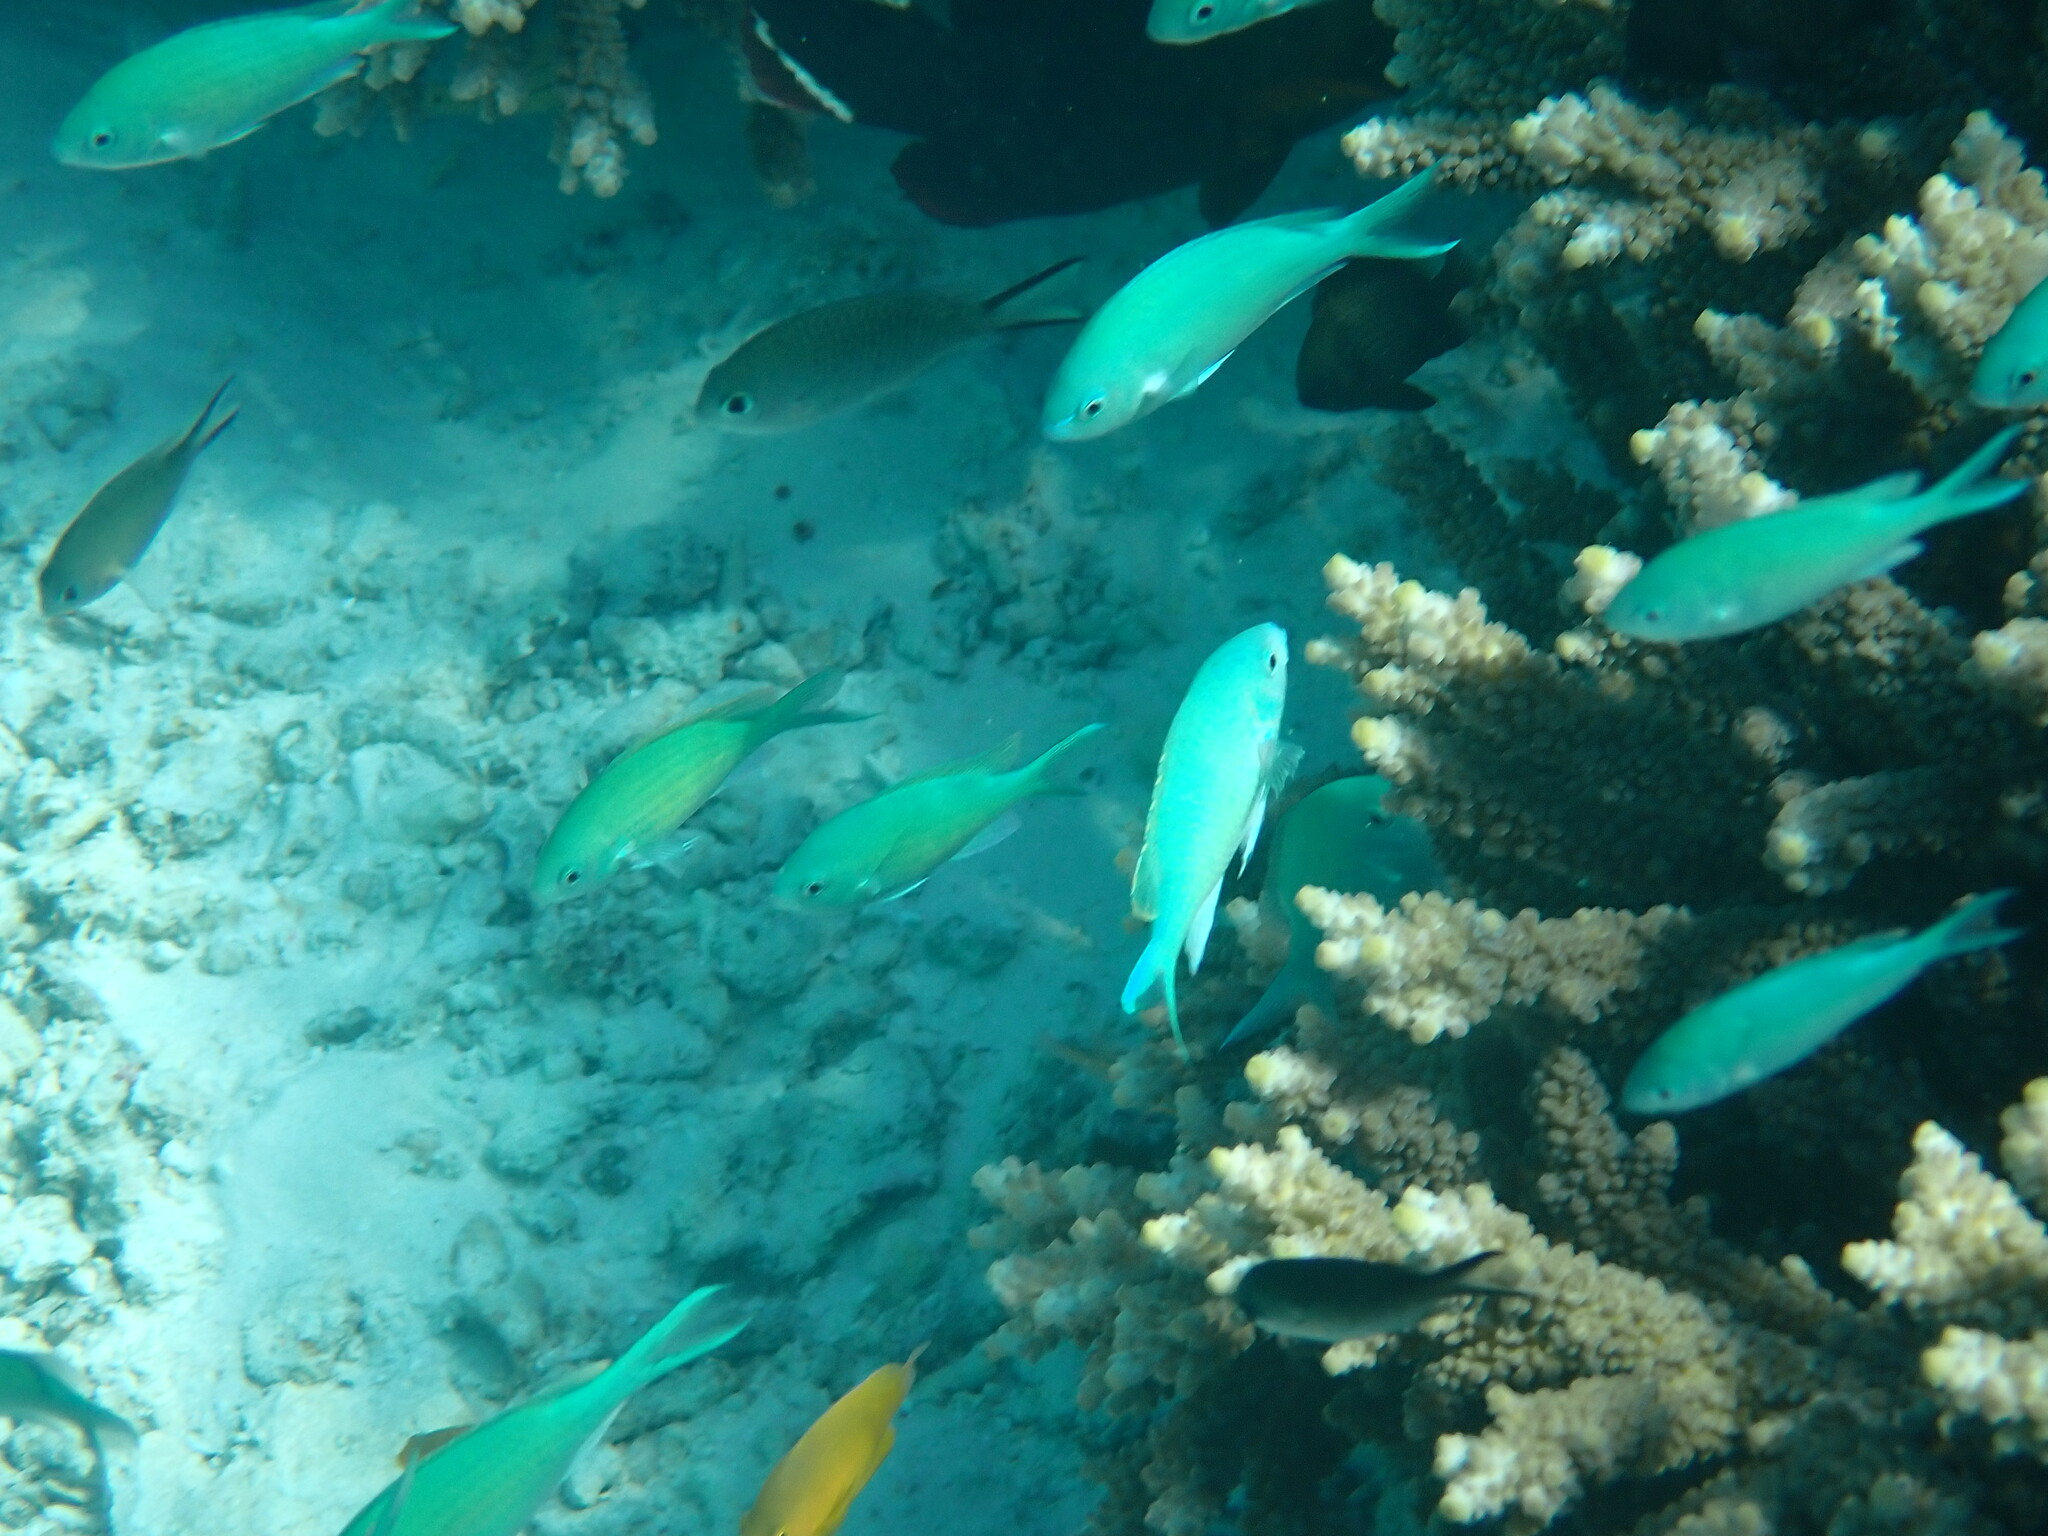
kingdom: Animalia
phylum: Chordata
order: Perciformes
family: Pomacentridae
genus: Chromis
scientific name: Chromis viridis
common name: Blue-green chromis
